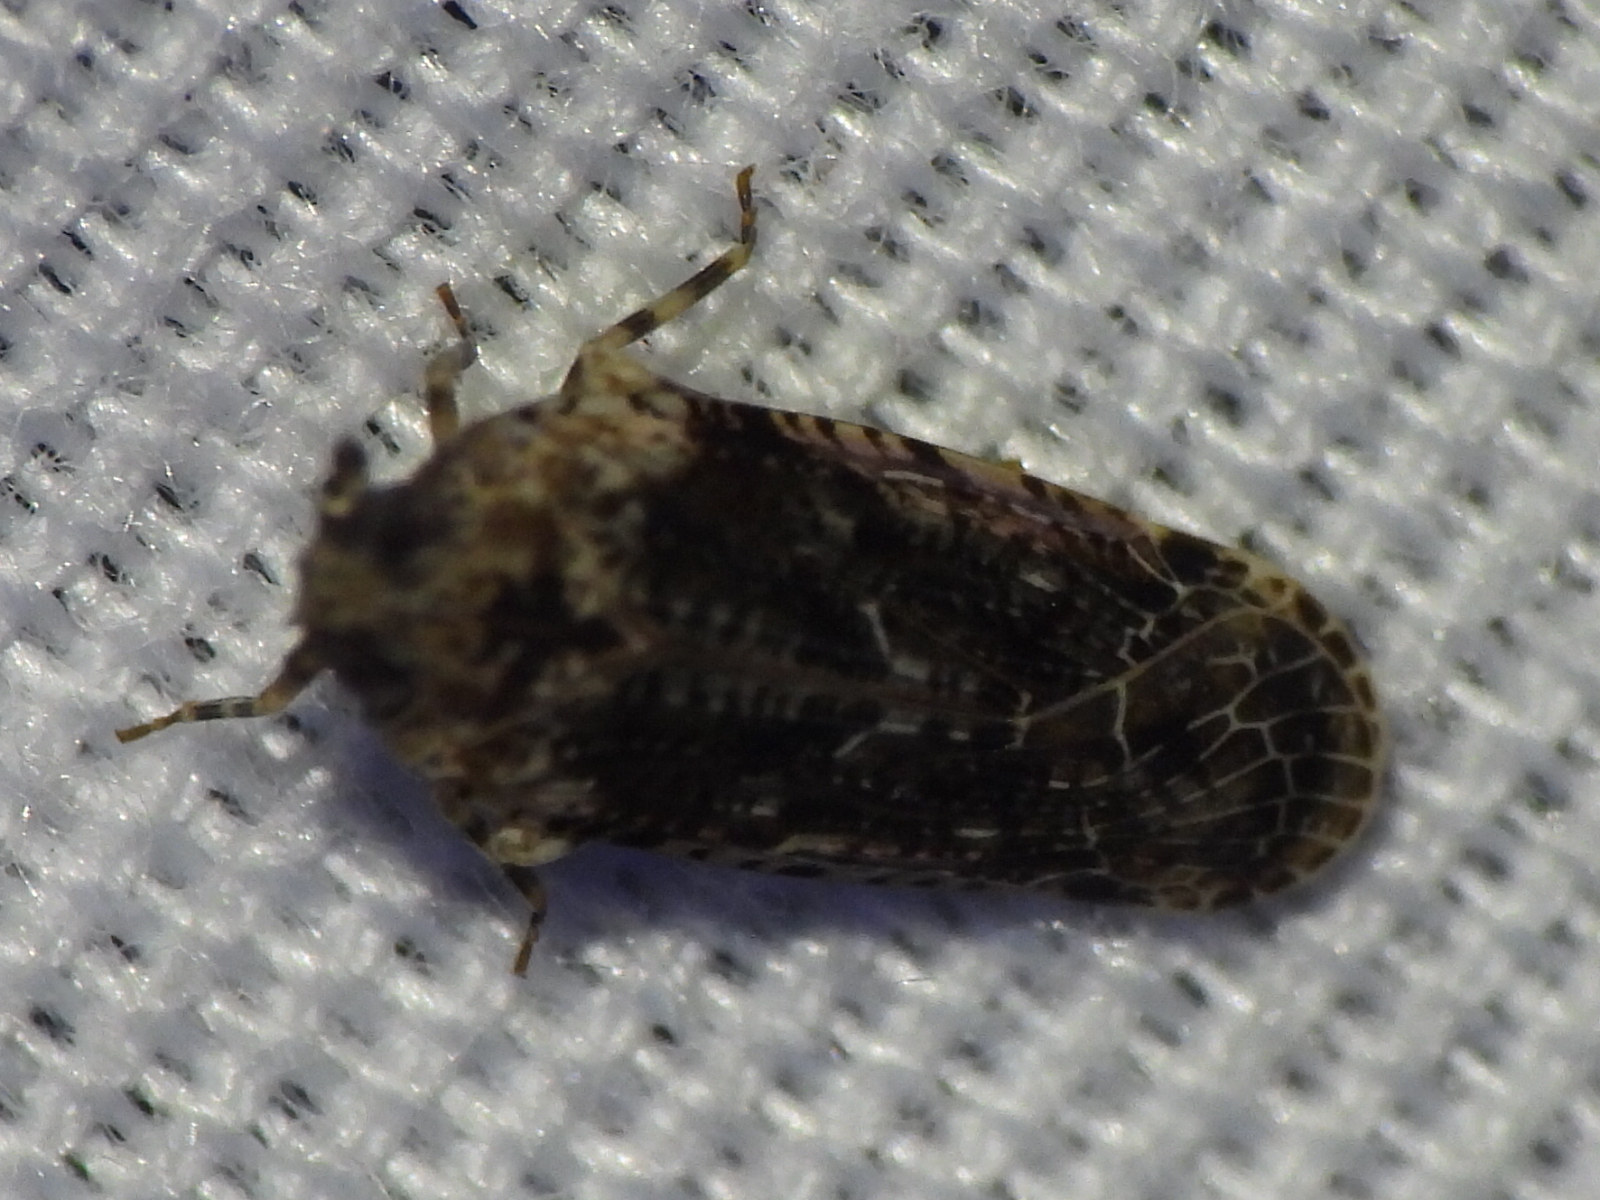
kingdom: Animalia
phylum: Arthropoda
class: Insecta
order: Hemiptera
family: Achilidae
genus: Catonia
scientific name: Catonia nava
